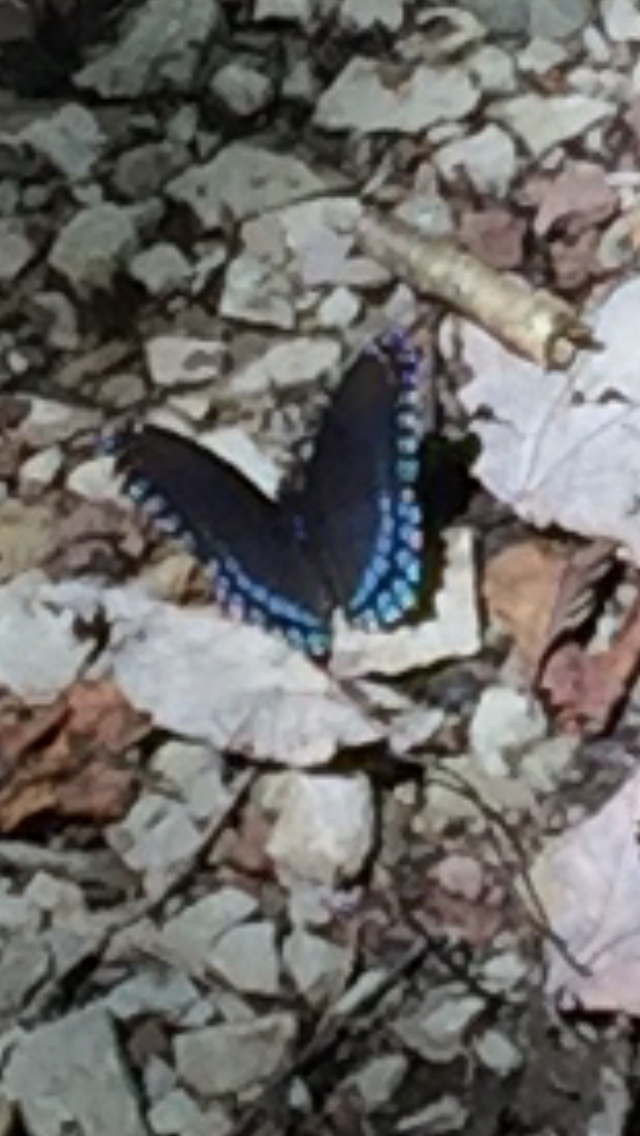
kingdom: Animalia
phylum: Arthropoda
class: Insecta
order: Lepidoptera
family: Nymphalidae
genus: Limenitis
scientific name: Limenitis arthemis
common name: Red-spotted admiral
